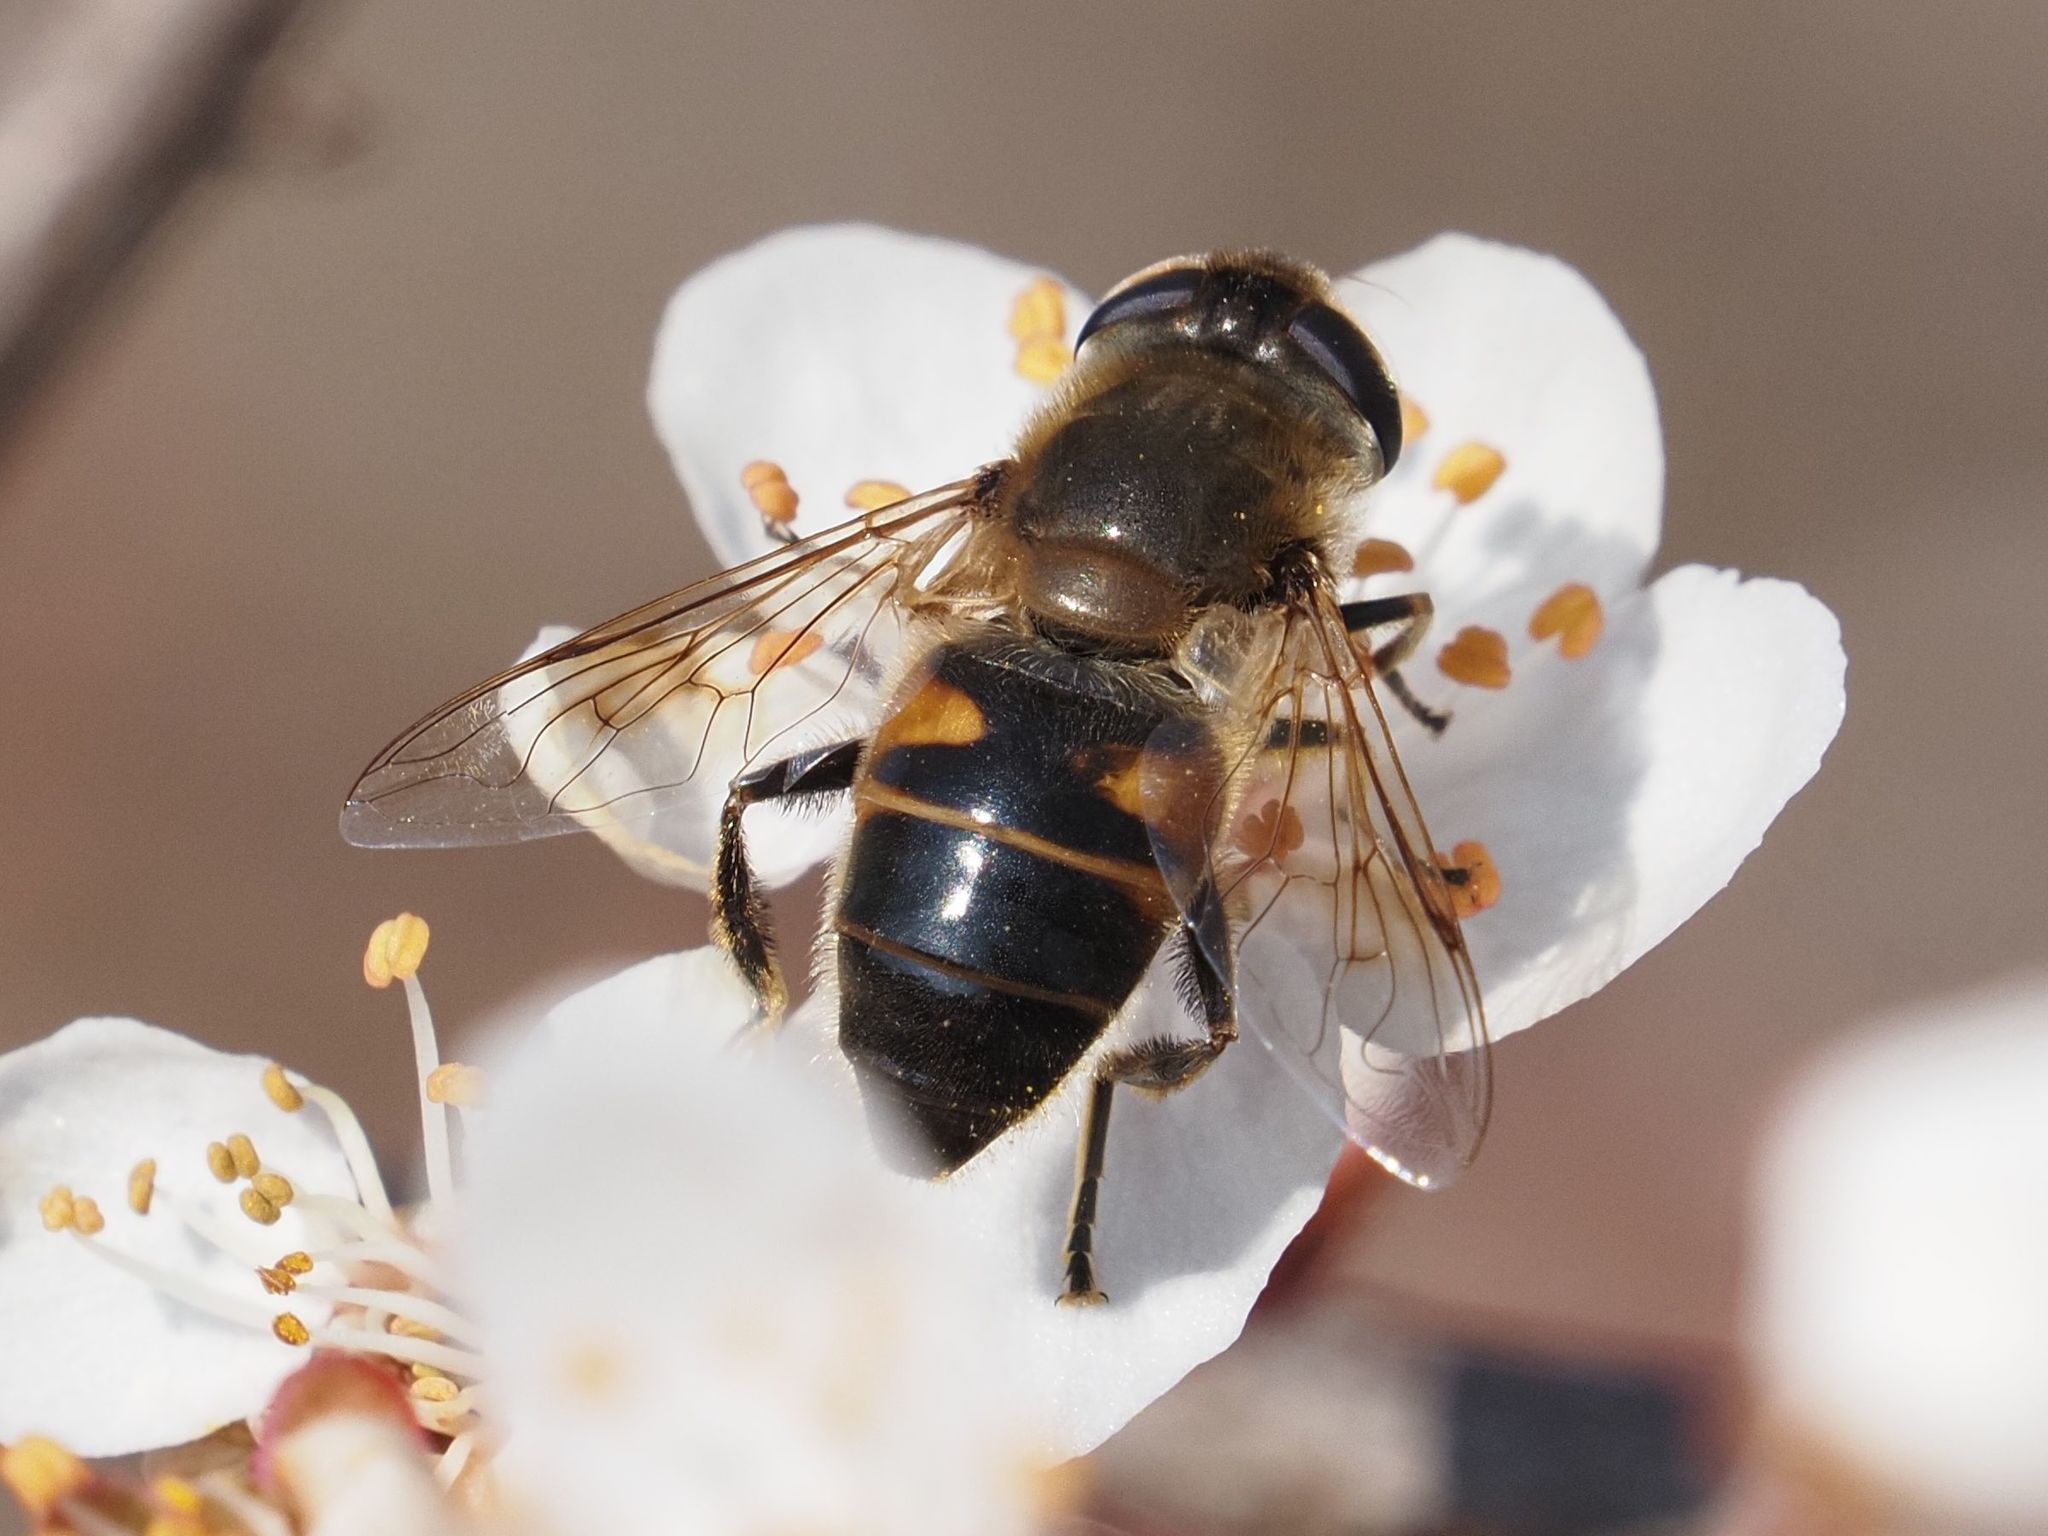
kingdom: Animalia
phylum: Arthropoda
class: Insecta
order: Diptera
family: Syrphidae
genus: Eristalis
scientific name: Eristalis tenax
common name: Drone fly
